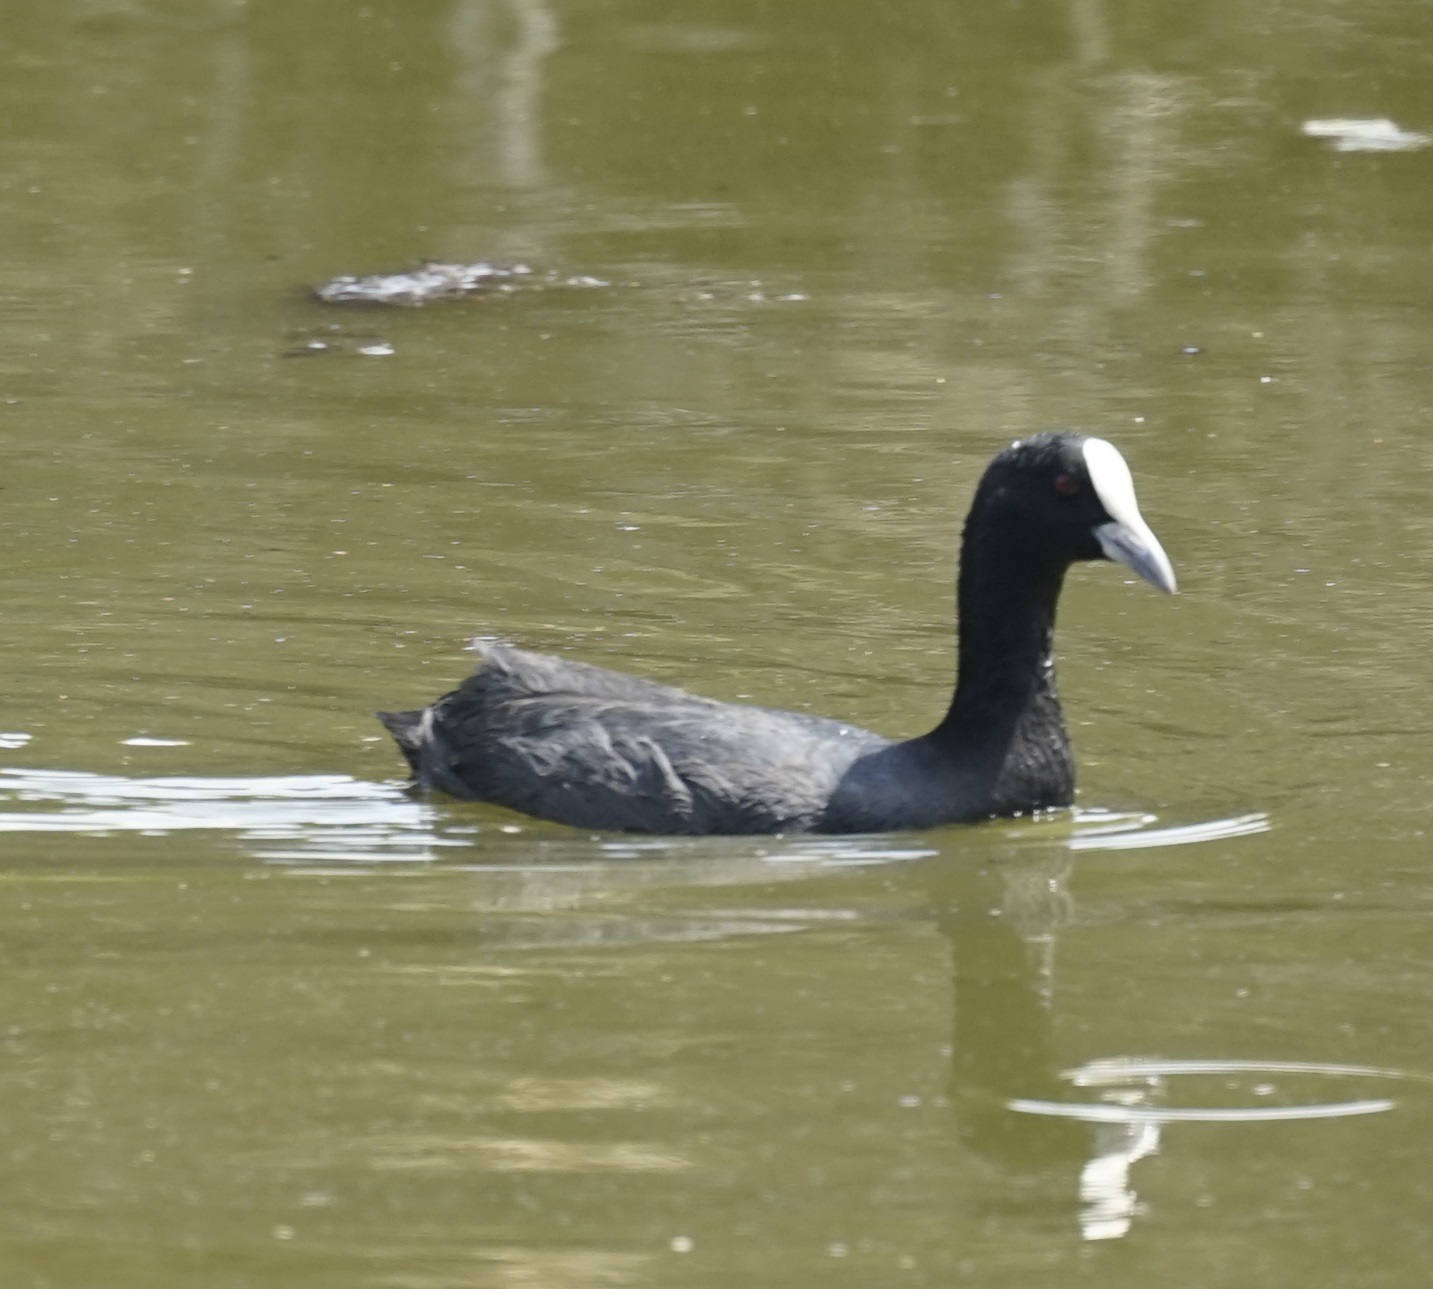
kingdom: Animalia
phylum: Chordata
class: Aves
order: Gruiformes
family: Rallidae
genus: Fulica
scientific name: Fulica atra
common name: Eurasian coot
